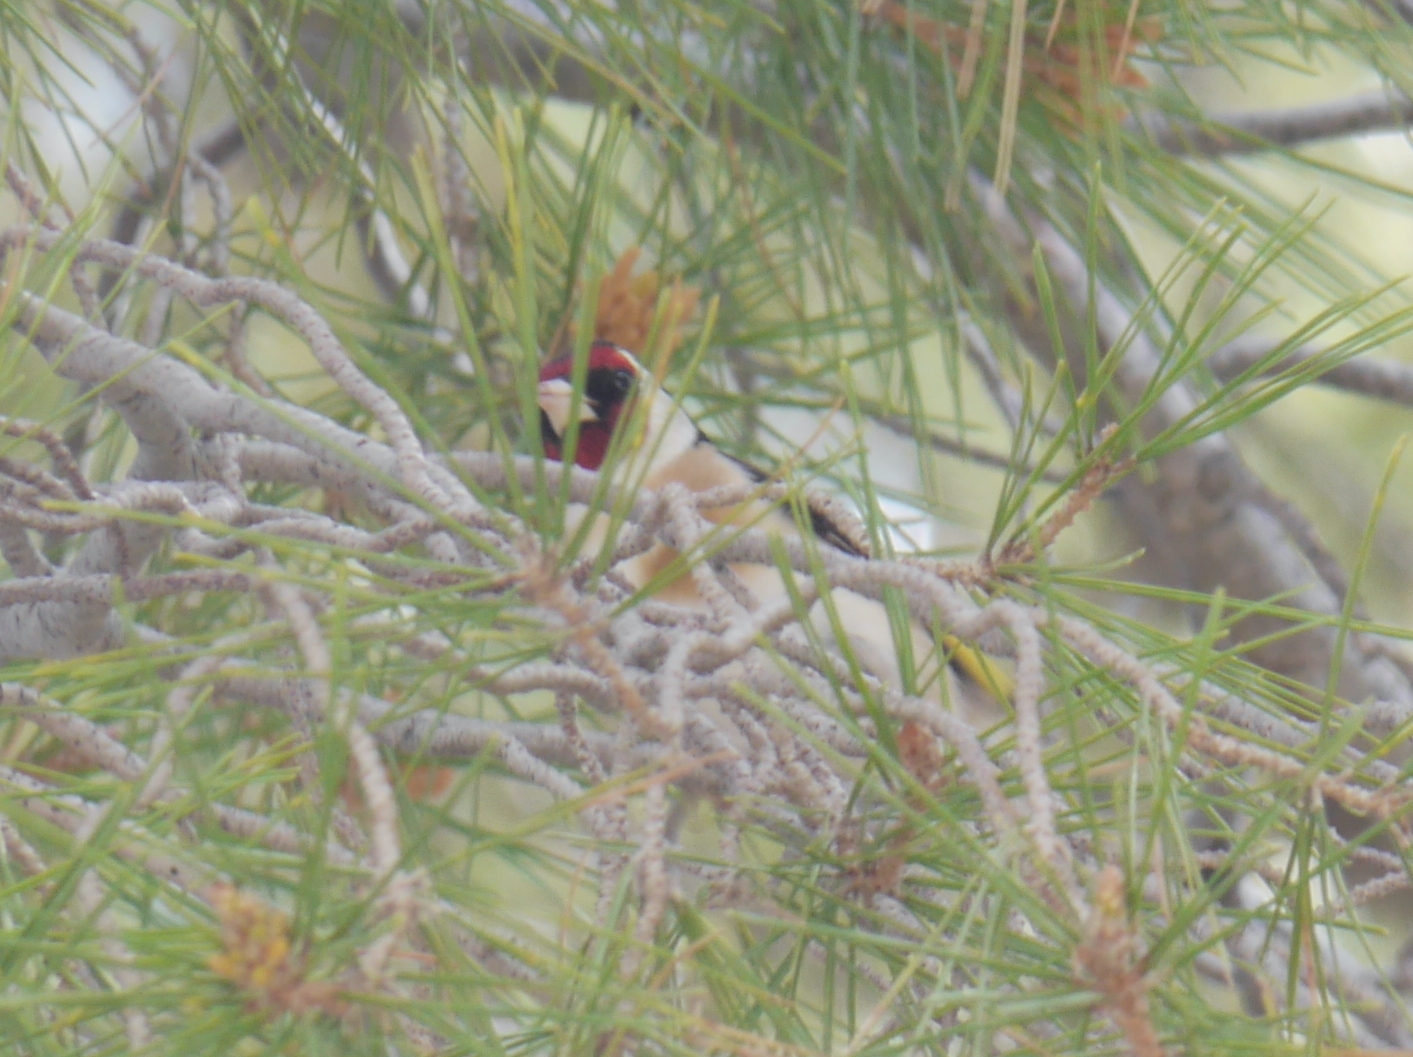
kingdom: Animalia
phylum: Chordata
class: Aves
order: Passeriformes
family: Fringillidae
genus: Carduelis
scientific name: Carduelis carduelis
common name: European goldfinch
